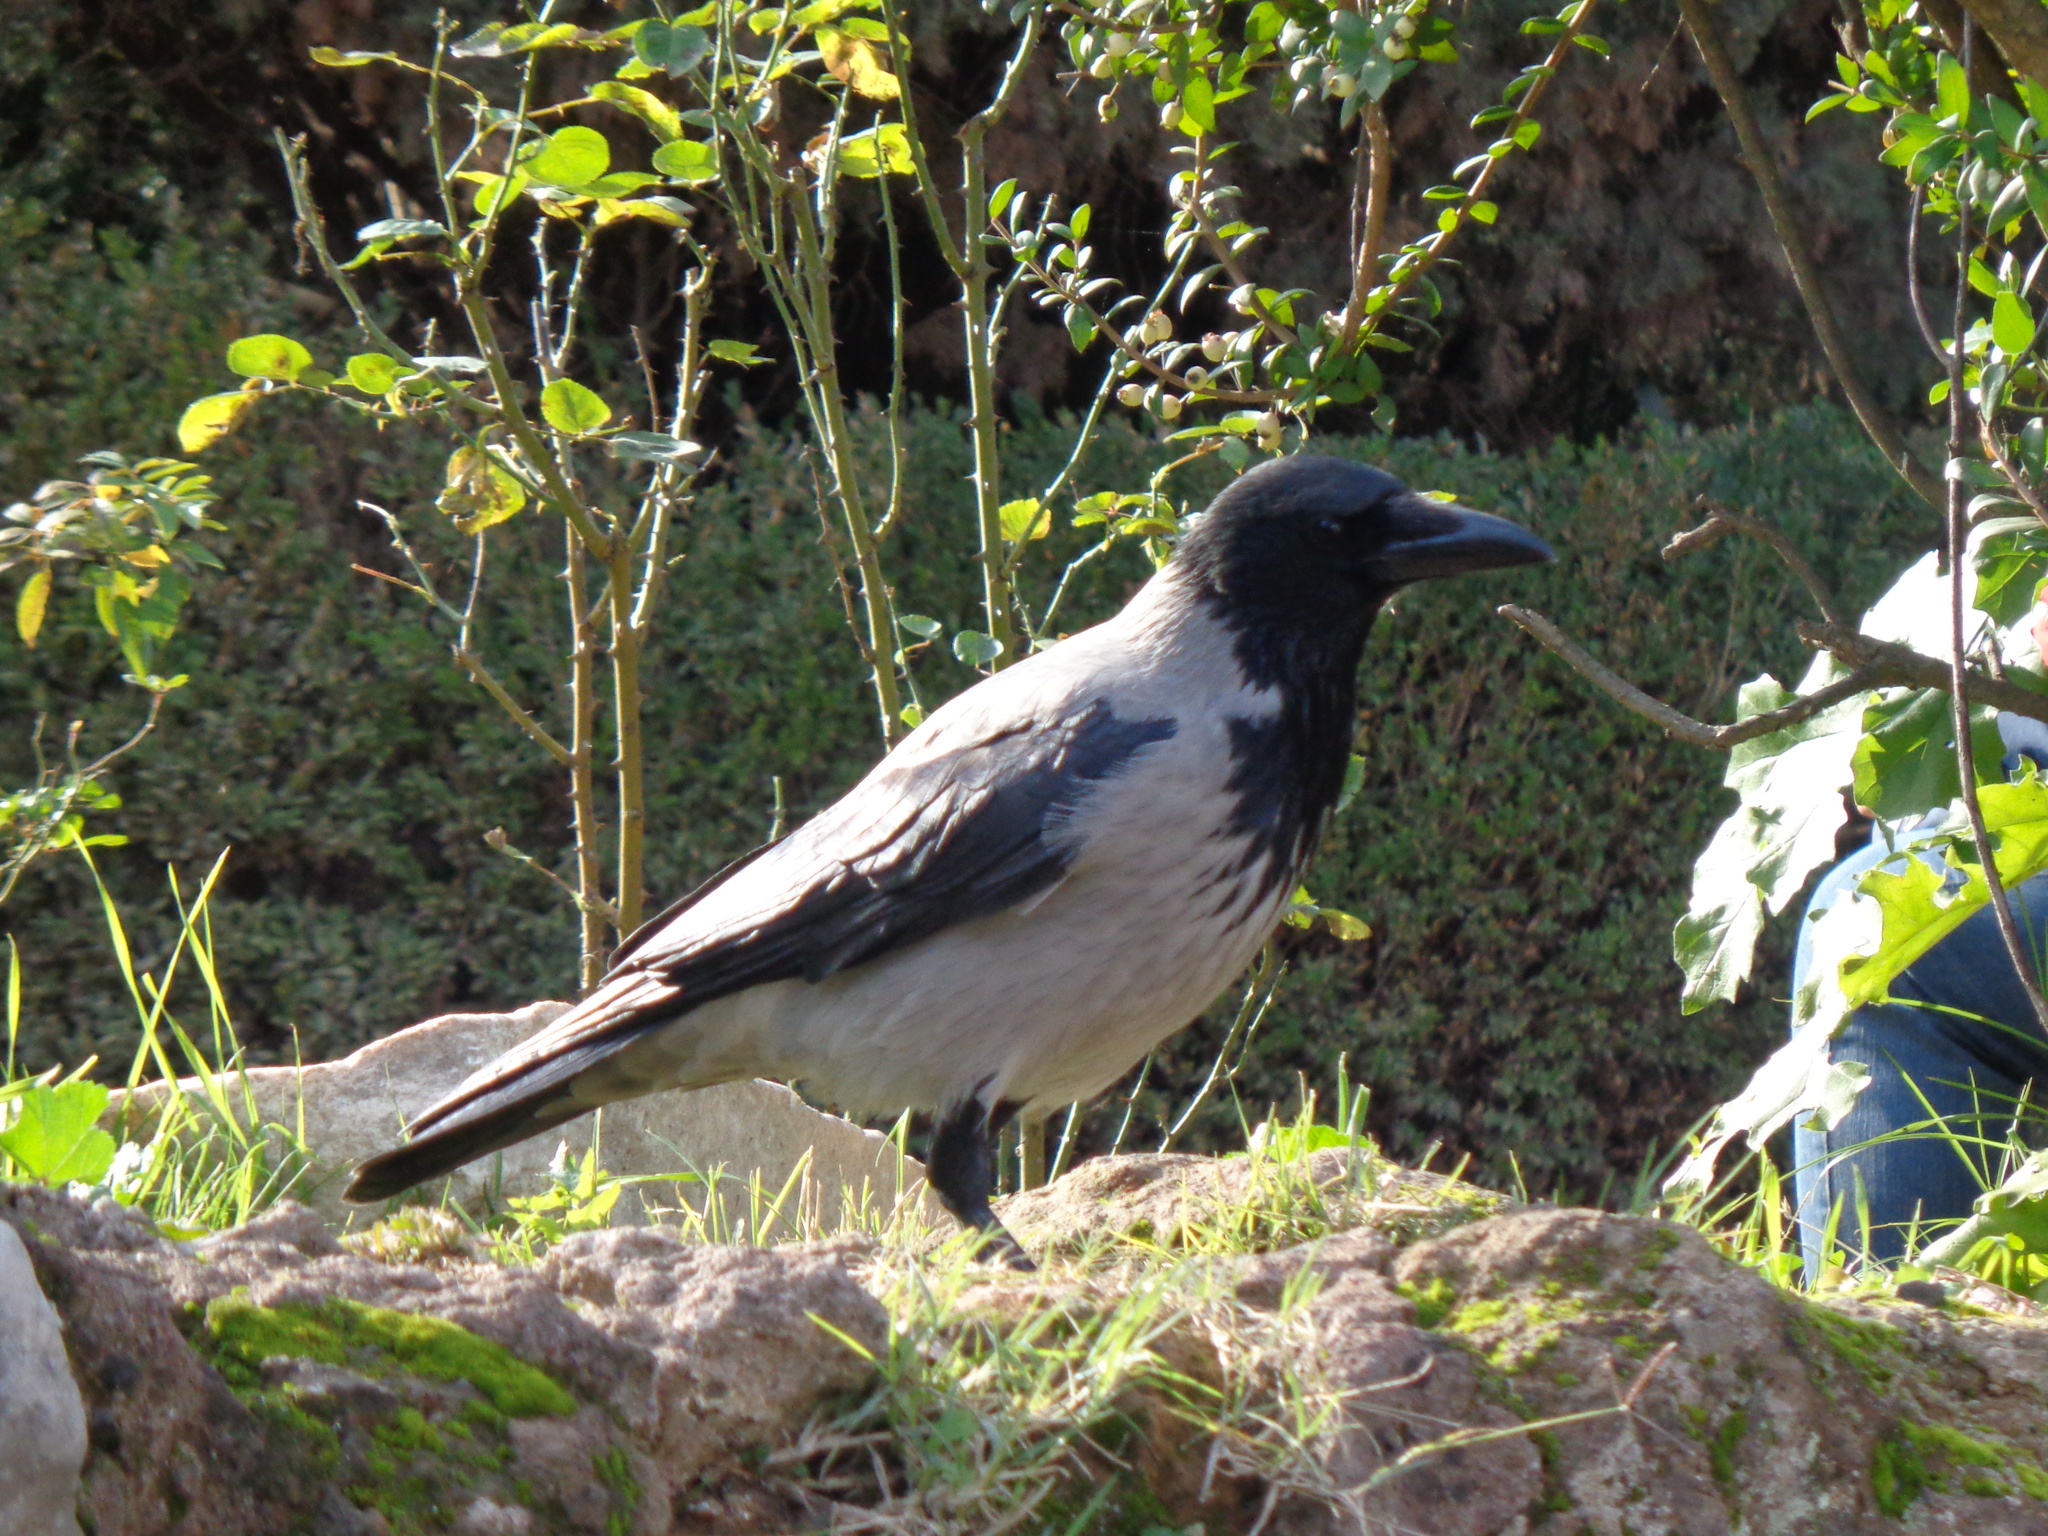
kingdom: Animalia
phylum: Chordata
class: Aves
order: Passeriformes
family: Corvidae
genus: Corvus
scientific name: Corvus cornix
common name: Hooded crow
